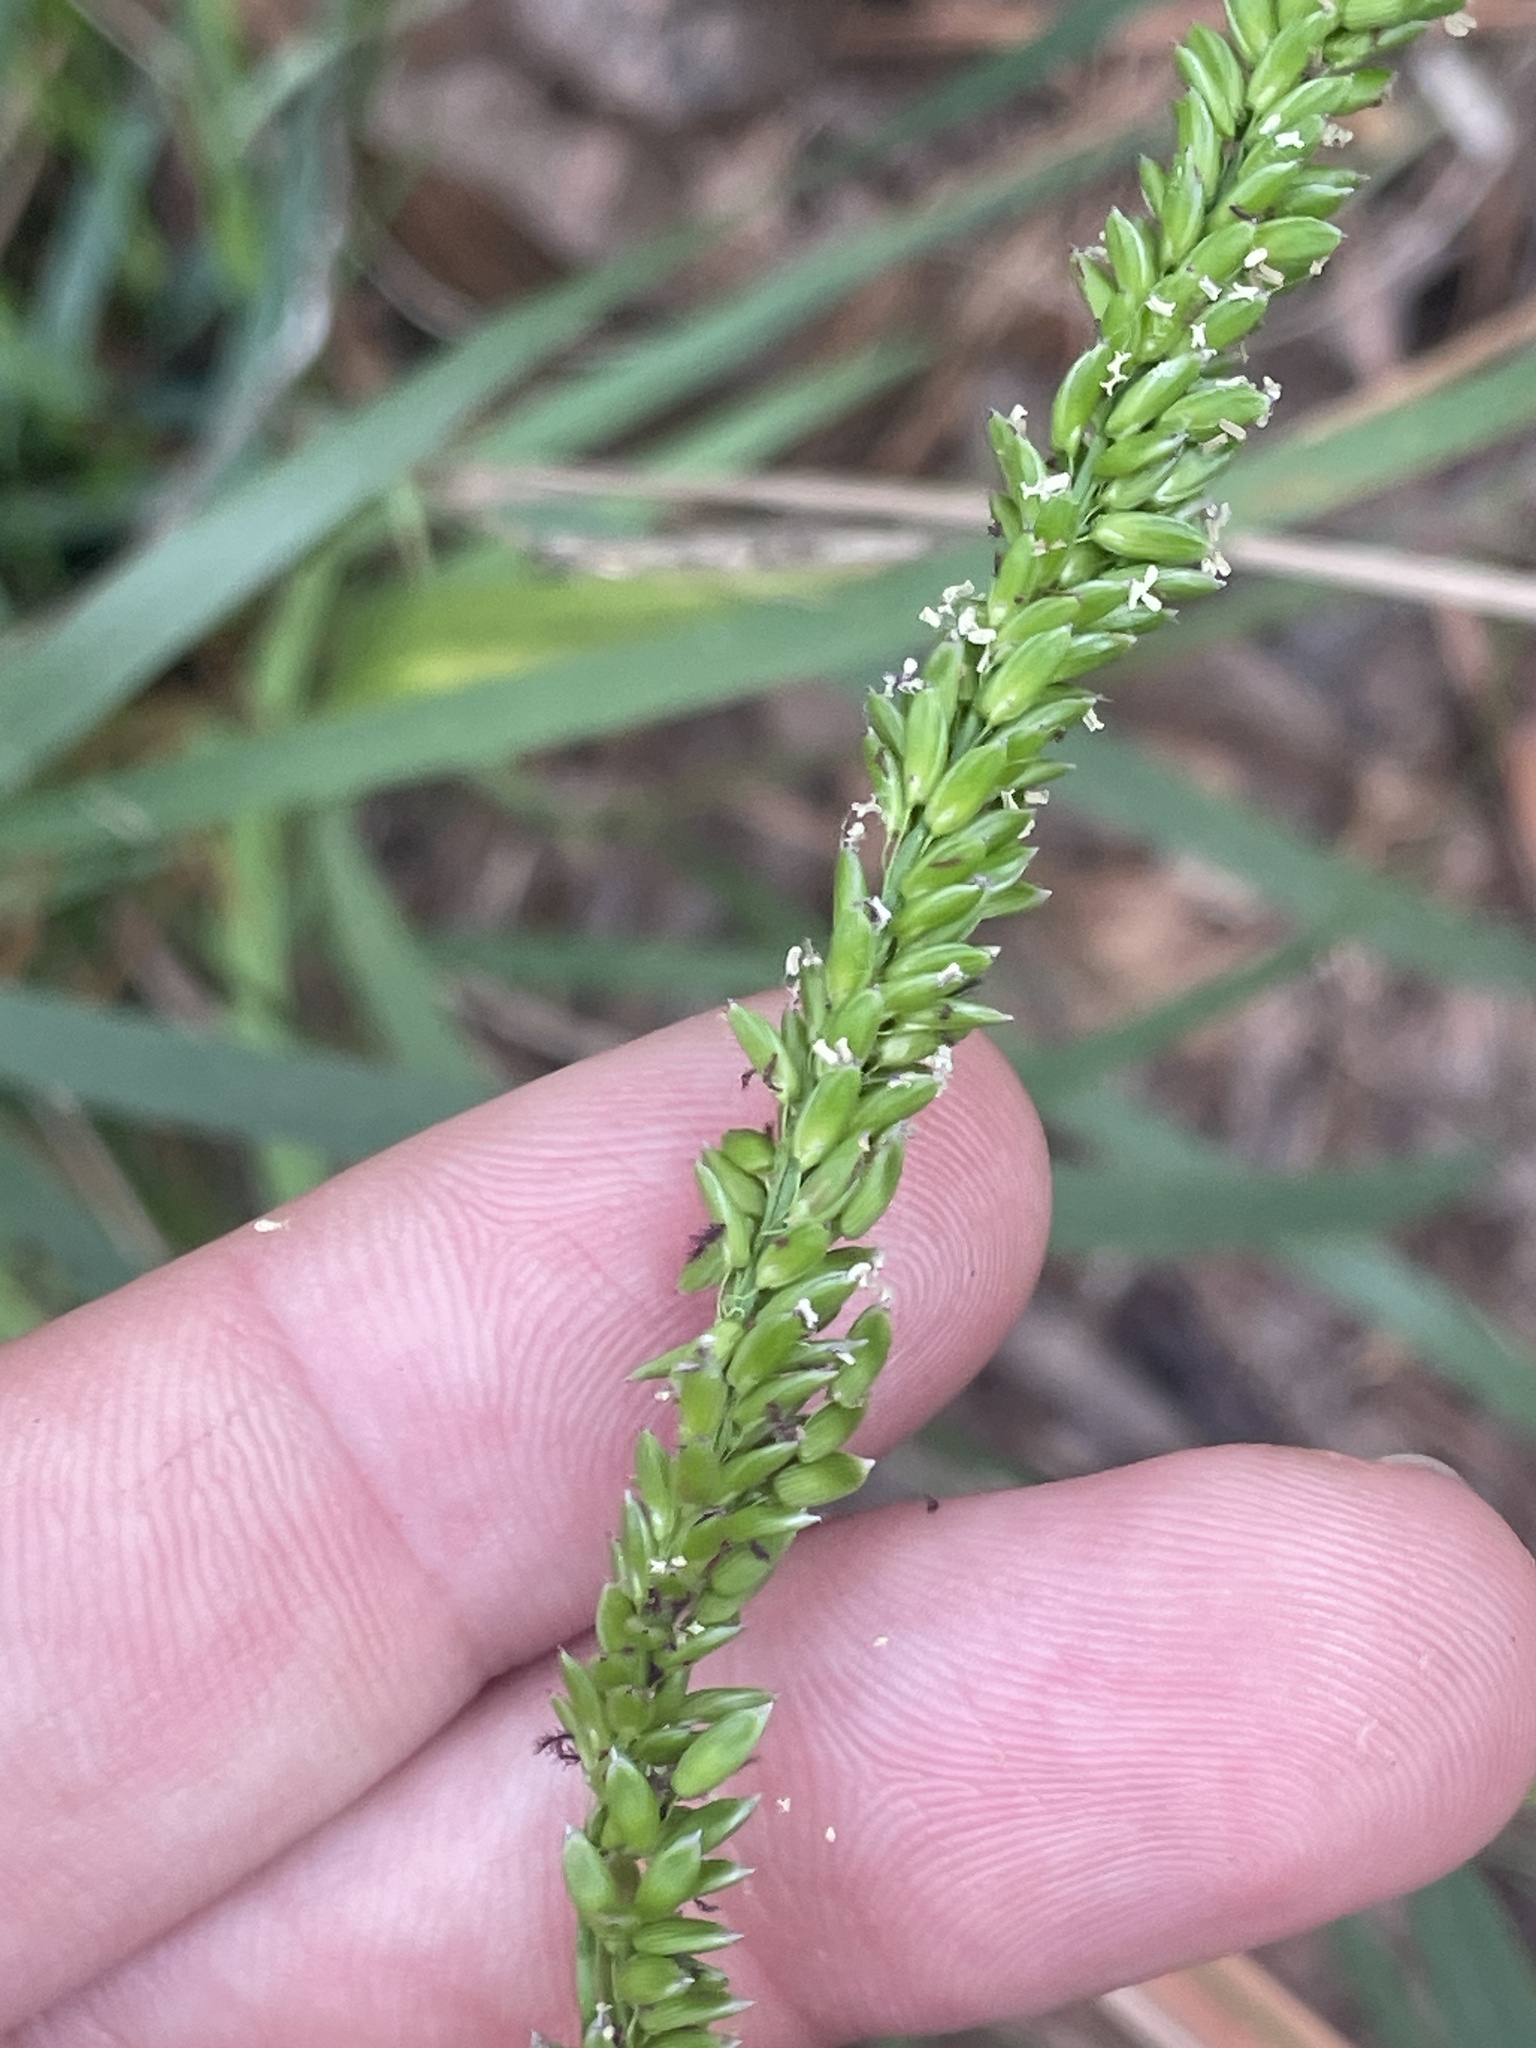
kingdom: Plantae
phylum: Tracheophyta
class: Liliopsida
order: Poales
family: Poaceae
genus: Sacciolepis
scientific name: Sacciolepis striata
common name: American cupscale
